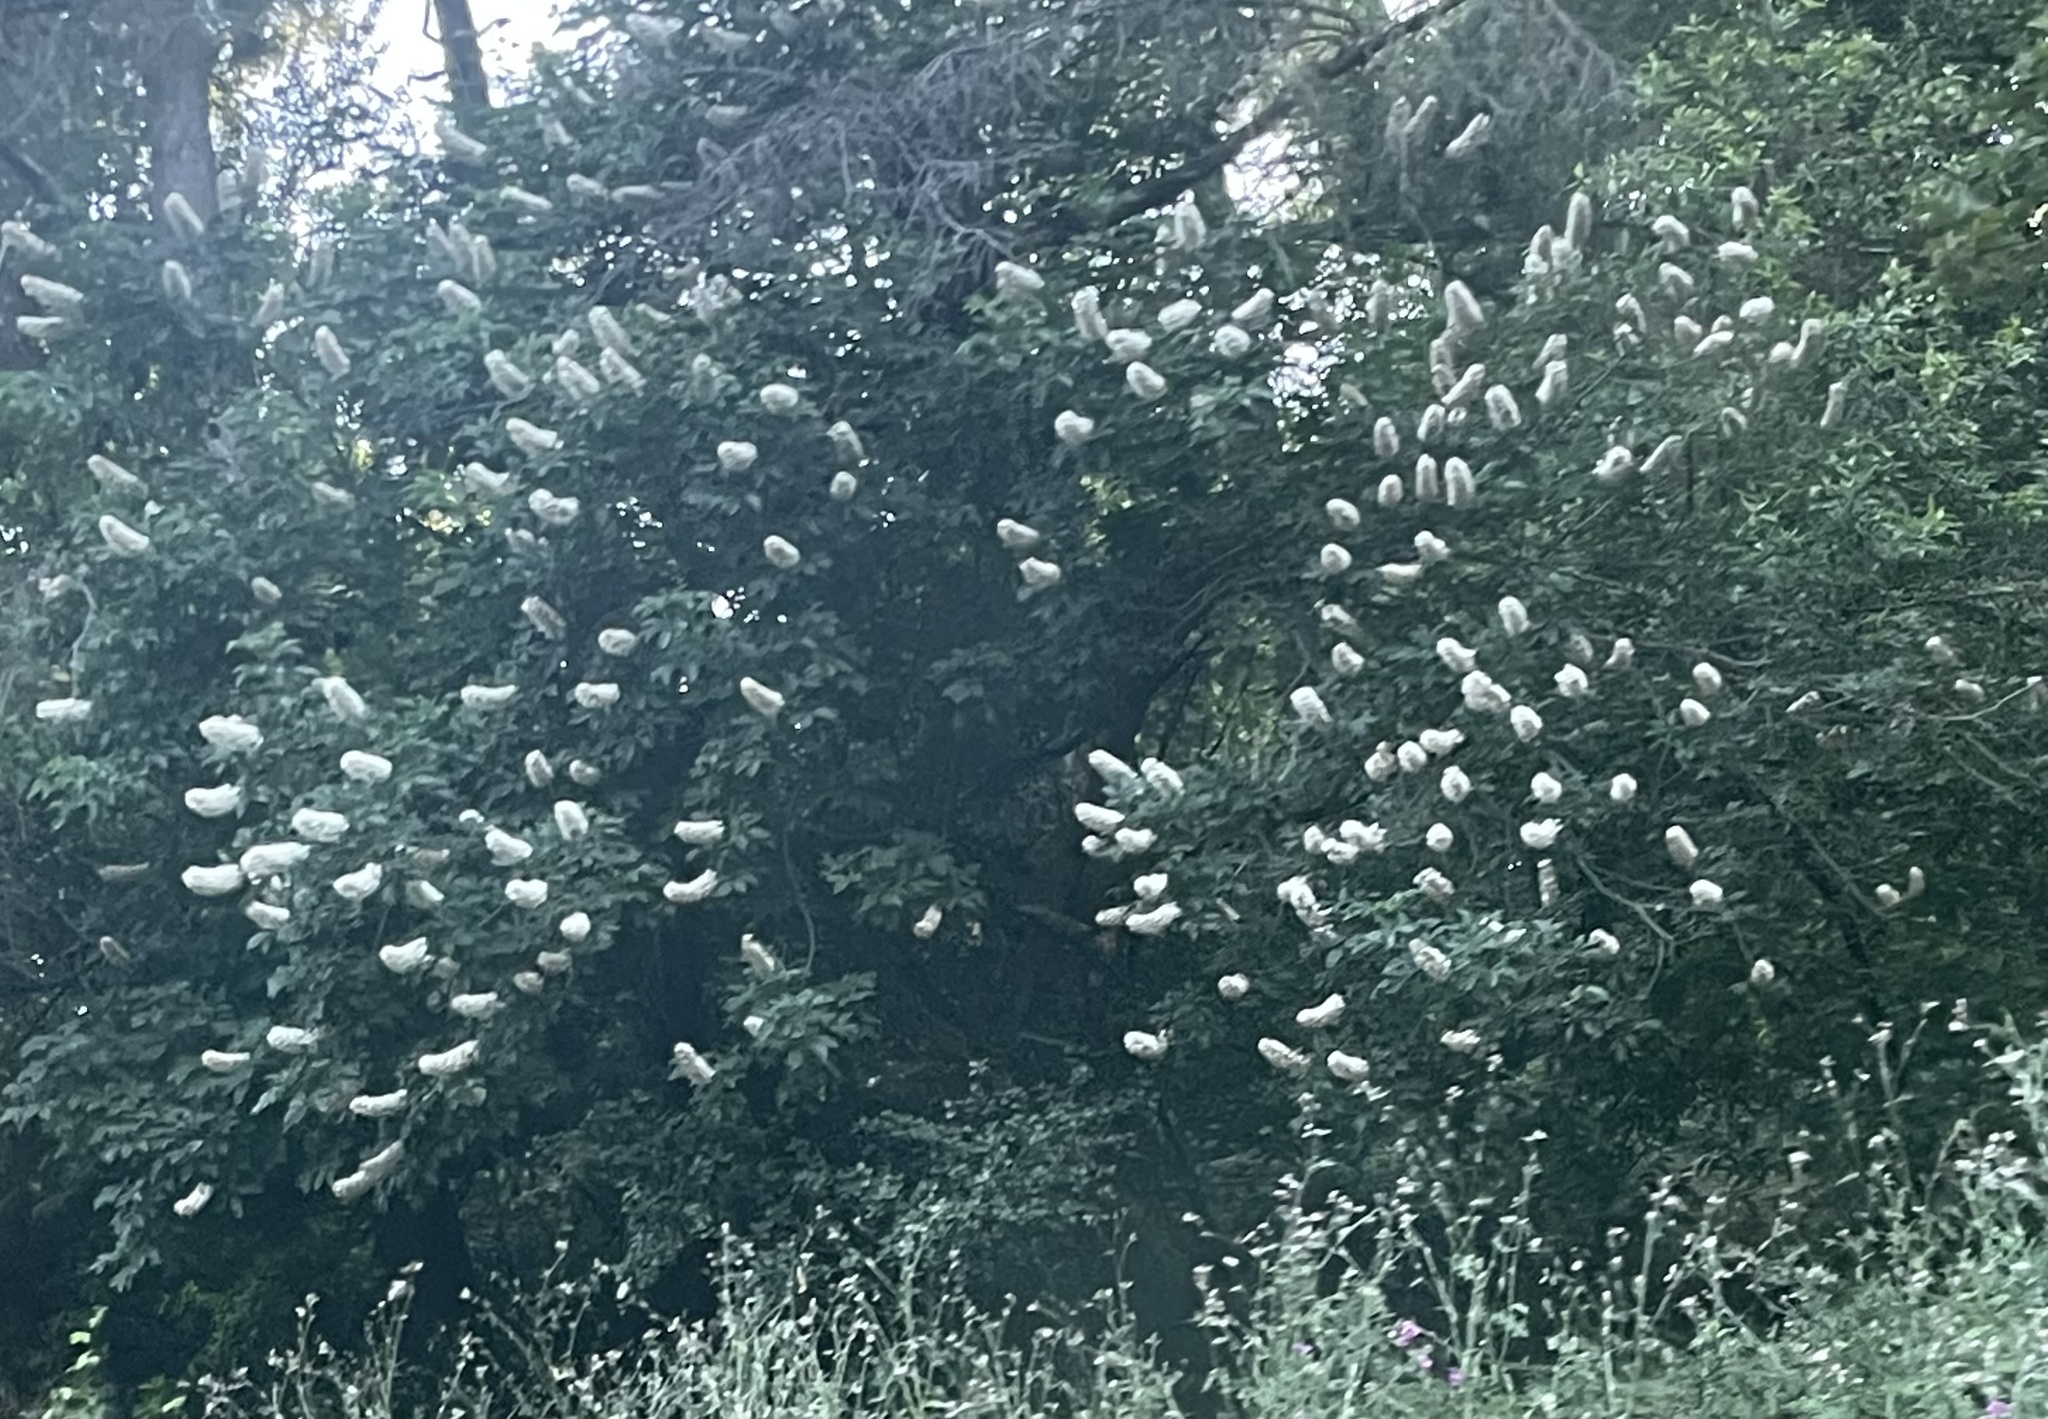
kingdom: Plantae
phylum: Tracheophyta
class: Magnoliopsida
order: Sapindales
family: Sapindaceae
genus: Aesculus
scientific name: Aesculus californica
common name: California buckeye
